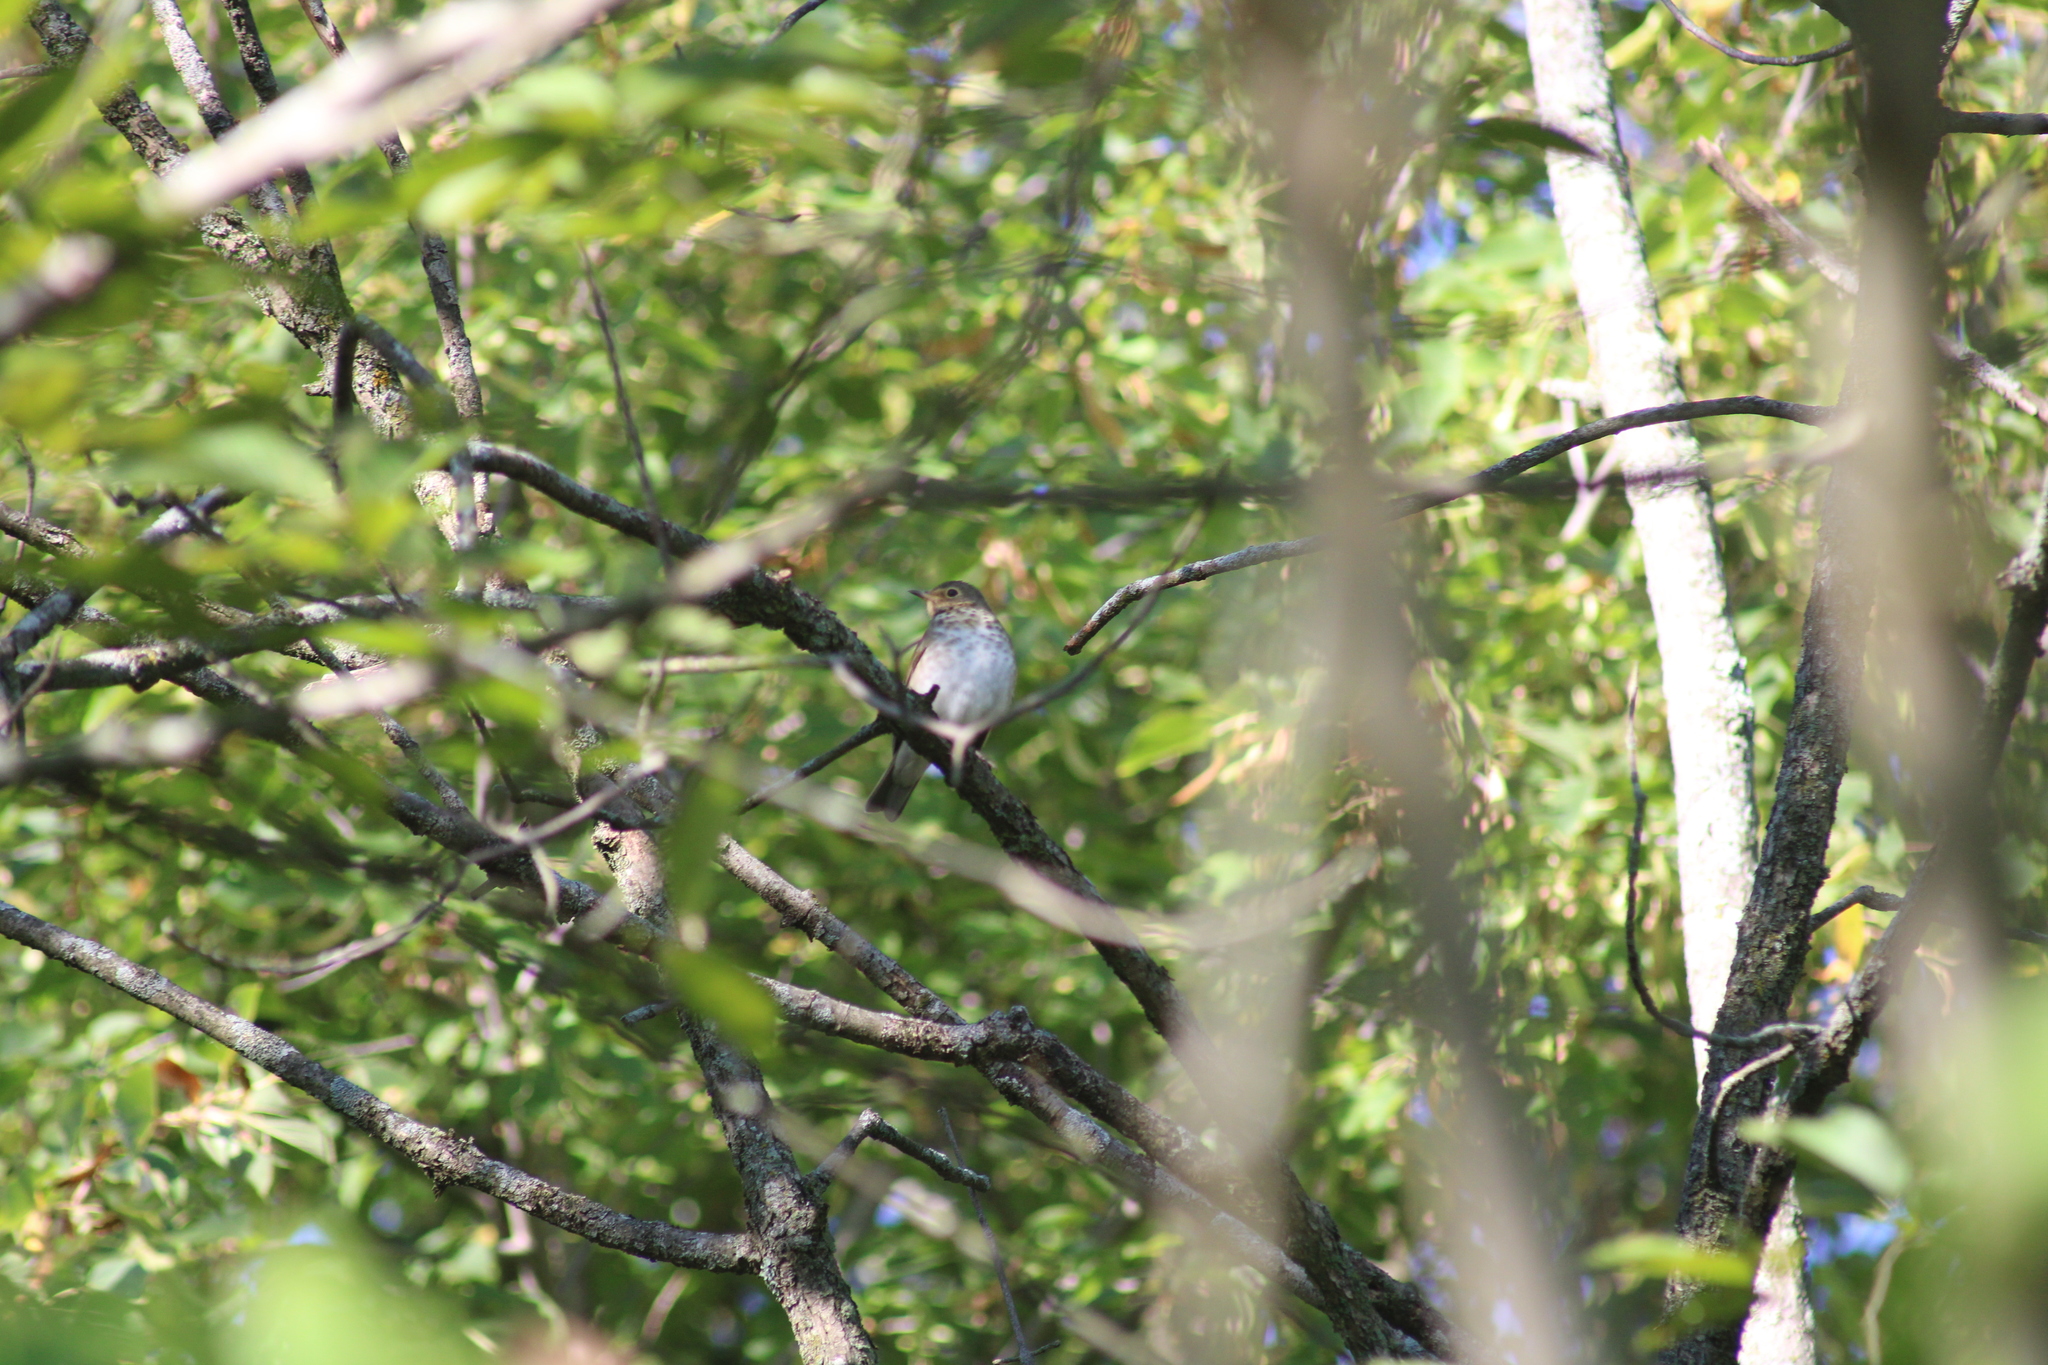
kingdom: Animalia
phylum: Chordata
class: Aves
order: Passeriformes
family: Turdidae
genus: Catharus
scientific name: Catharus ustulatus
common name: Swainson's thrush
